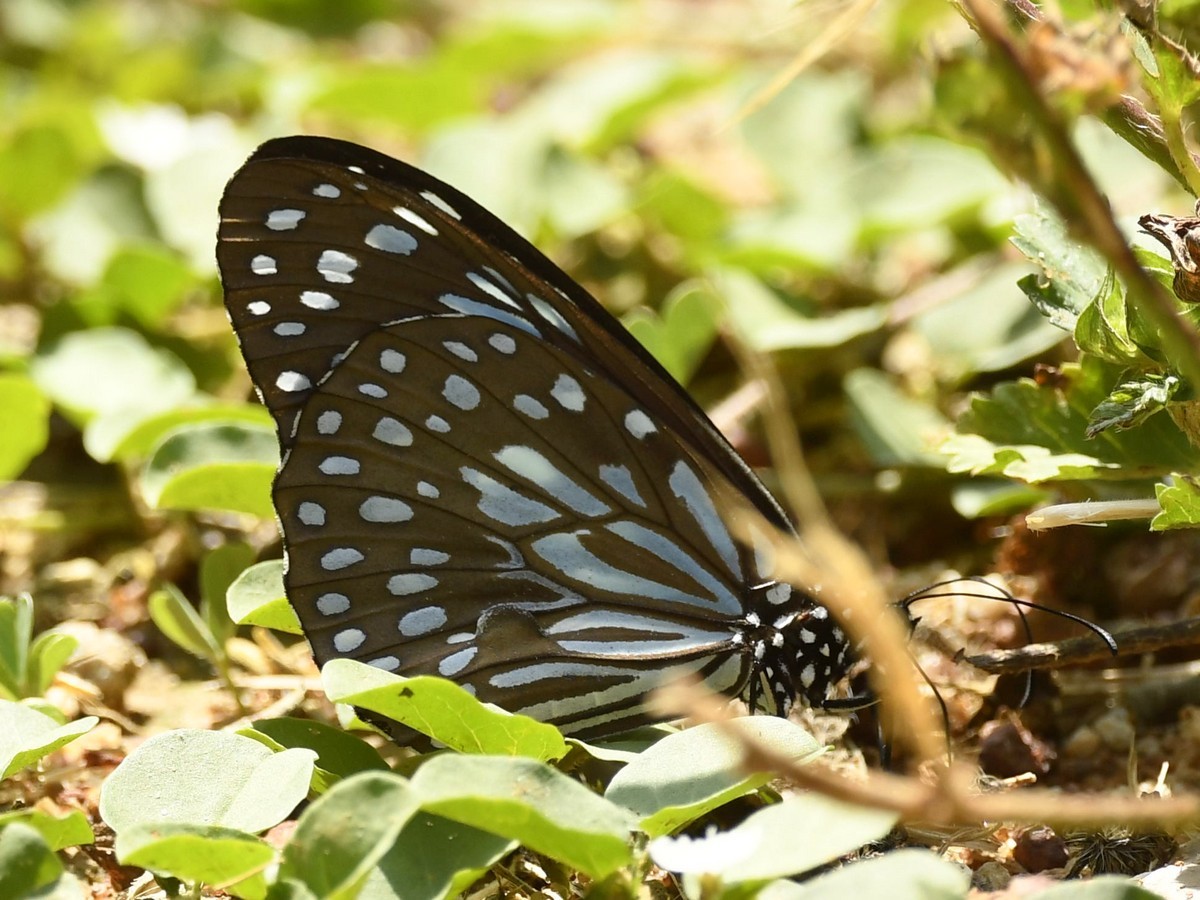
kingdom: Animalia
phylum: Arthropoda
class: Insecta
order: Lepidoptera
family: Nymphalidae
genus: Tirumala
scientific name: Tirumala septentrionis
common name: Dark blue tiger butterfly
